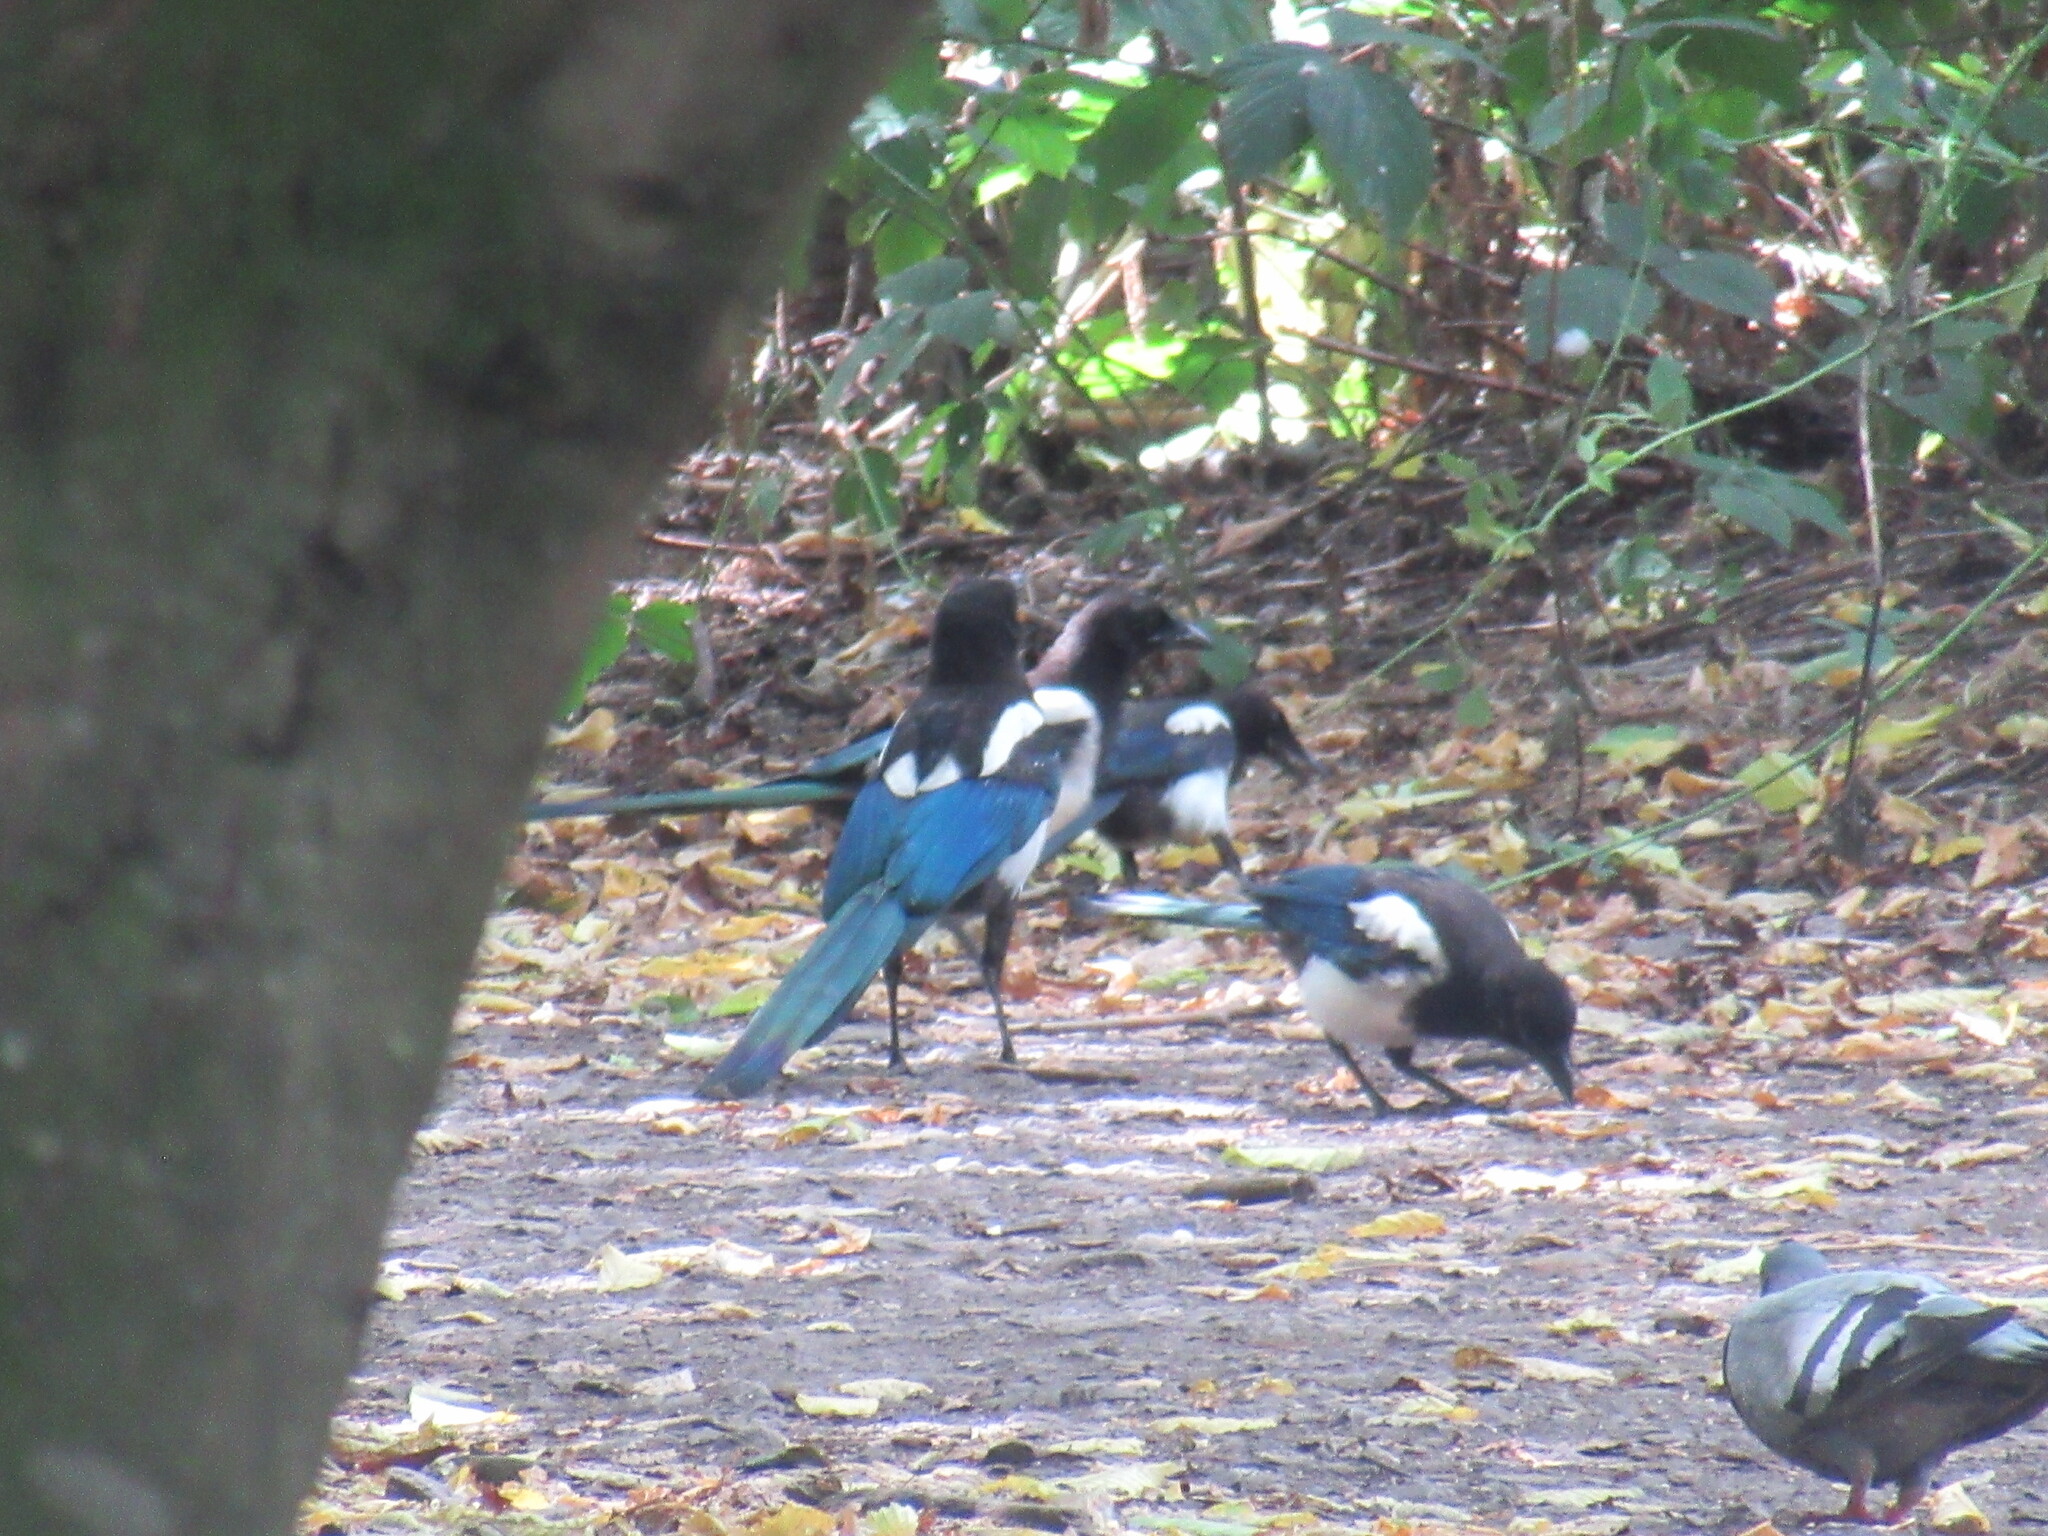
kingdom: Animalia
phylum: Chordata
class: Aves
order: Passeriformes
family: Corvidae
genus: Pica
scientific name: Pica pica
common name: Eurasian magpie
